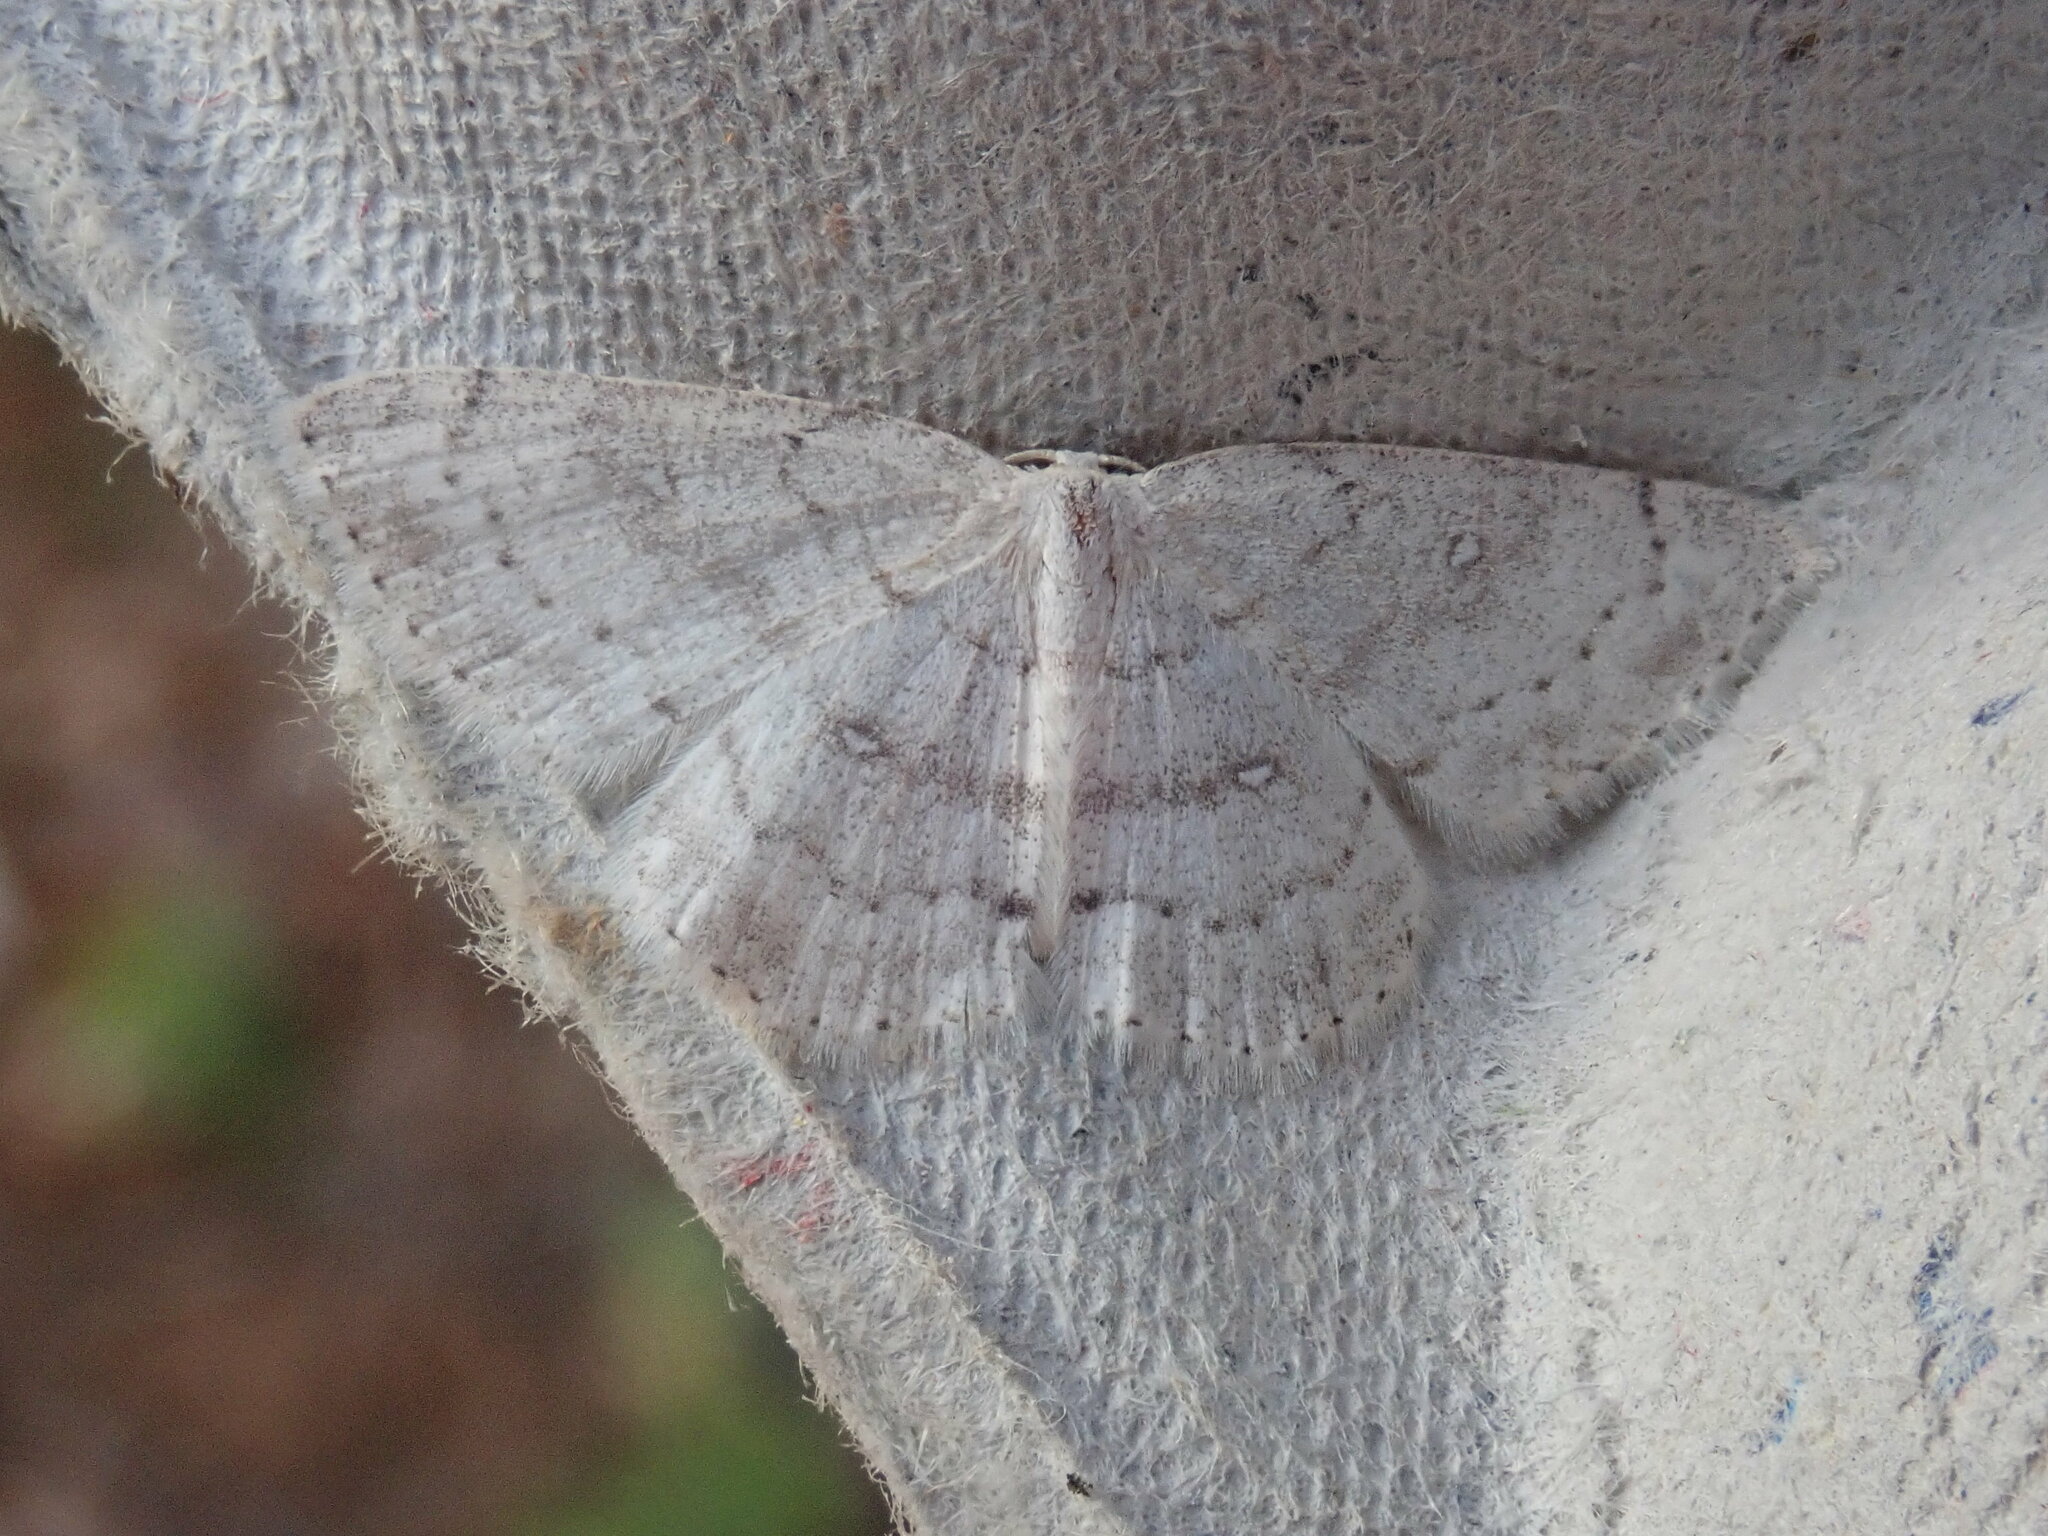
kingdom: Animalia
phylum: Arthropoda
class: Insecta
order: Lepidoptera
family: Geometridae
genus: Cyclophora
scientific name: Cyclophora pendulinaria
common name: Sweet fern geometer
